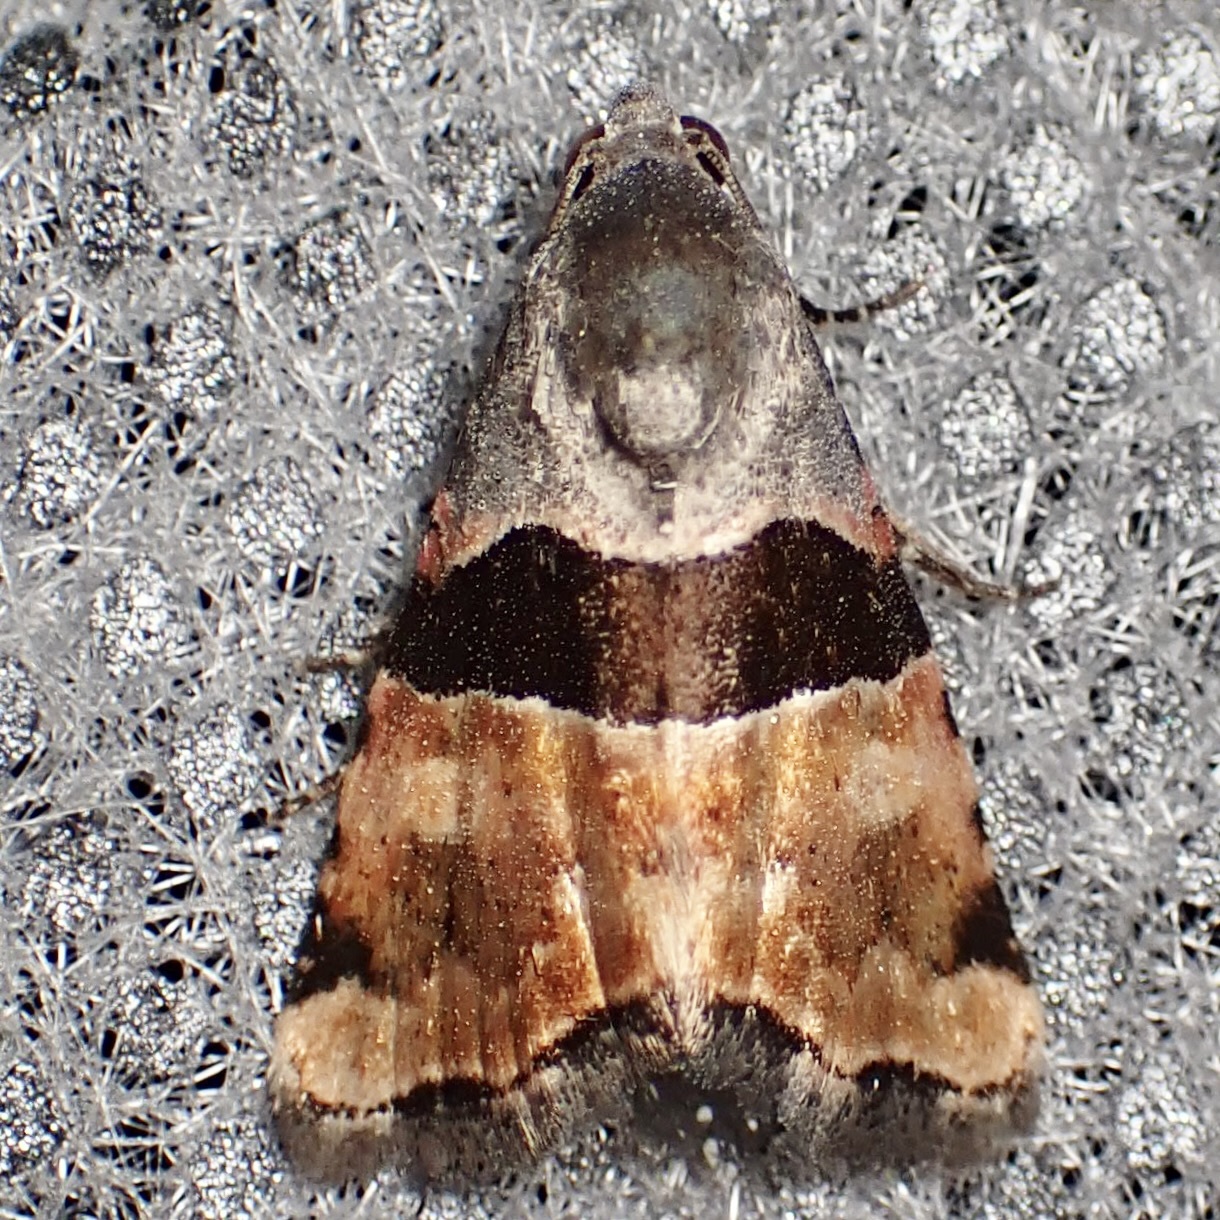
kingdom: Animalia
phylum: Arthropoda
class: Insecta
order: Lepidoptera
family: Noctuidae
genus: Cobubatha
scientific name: Cobubatha lixiva
